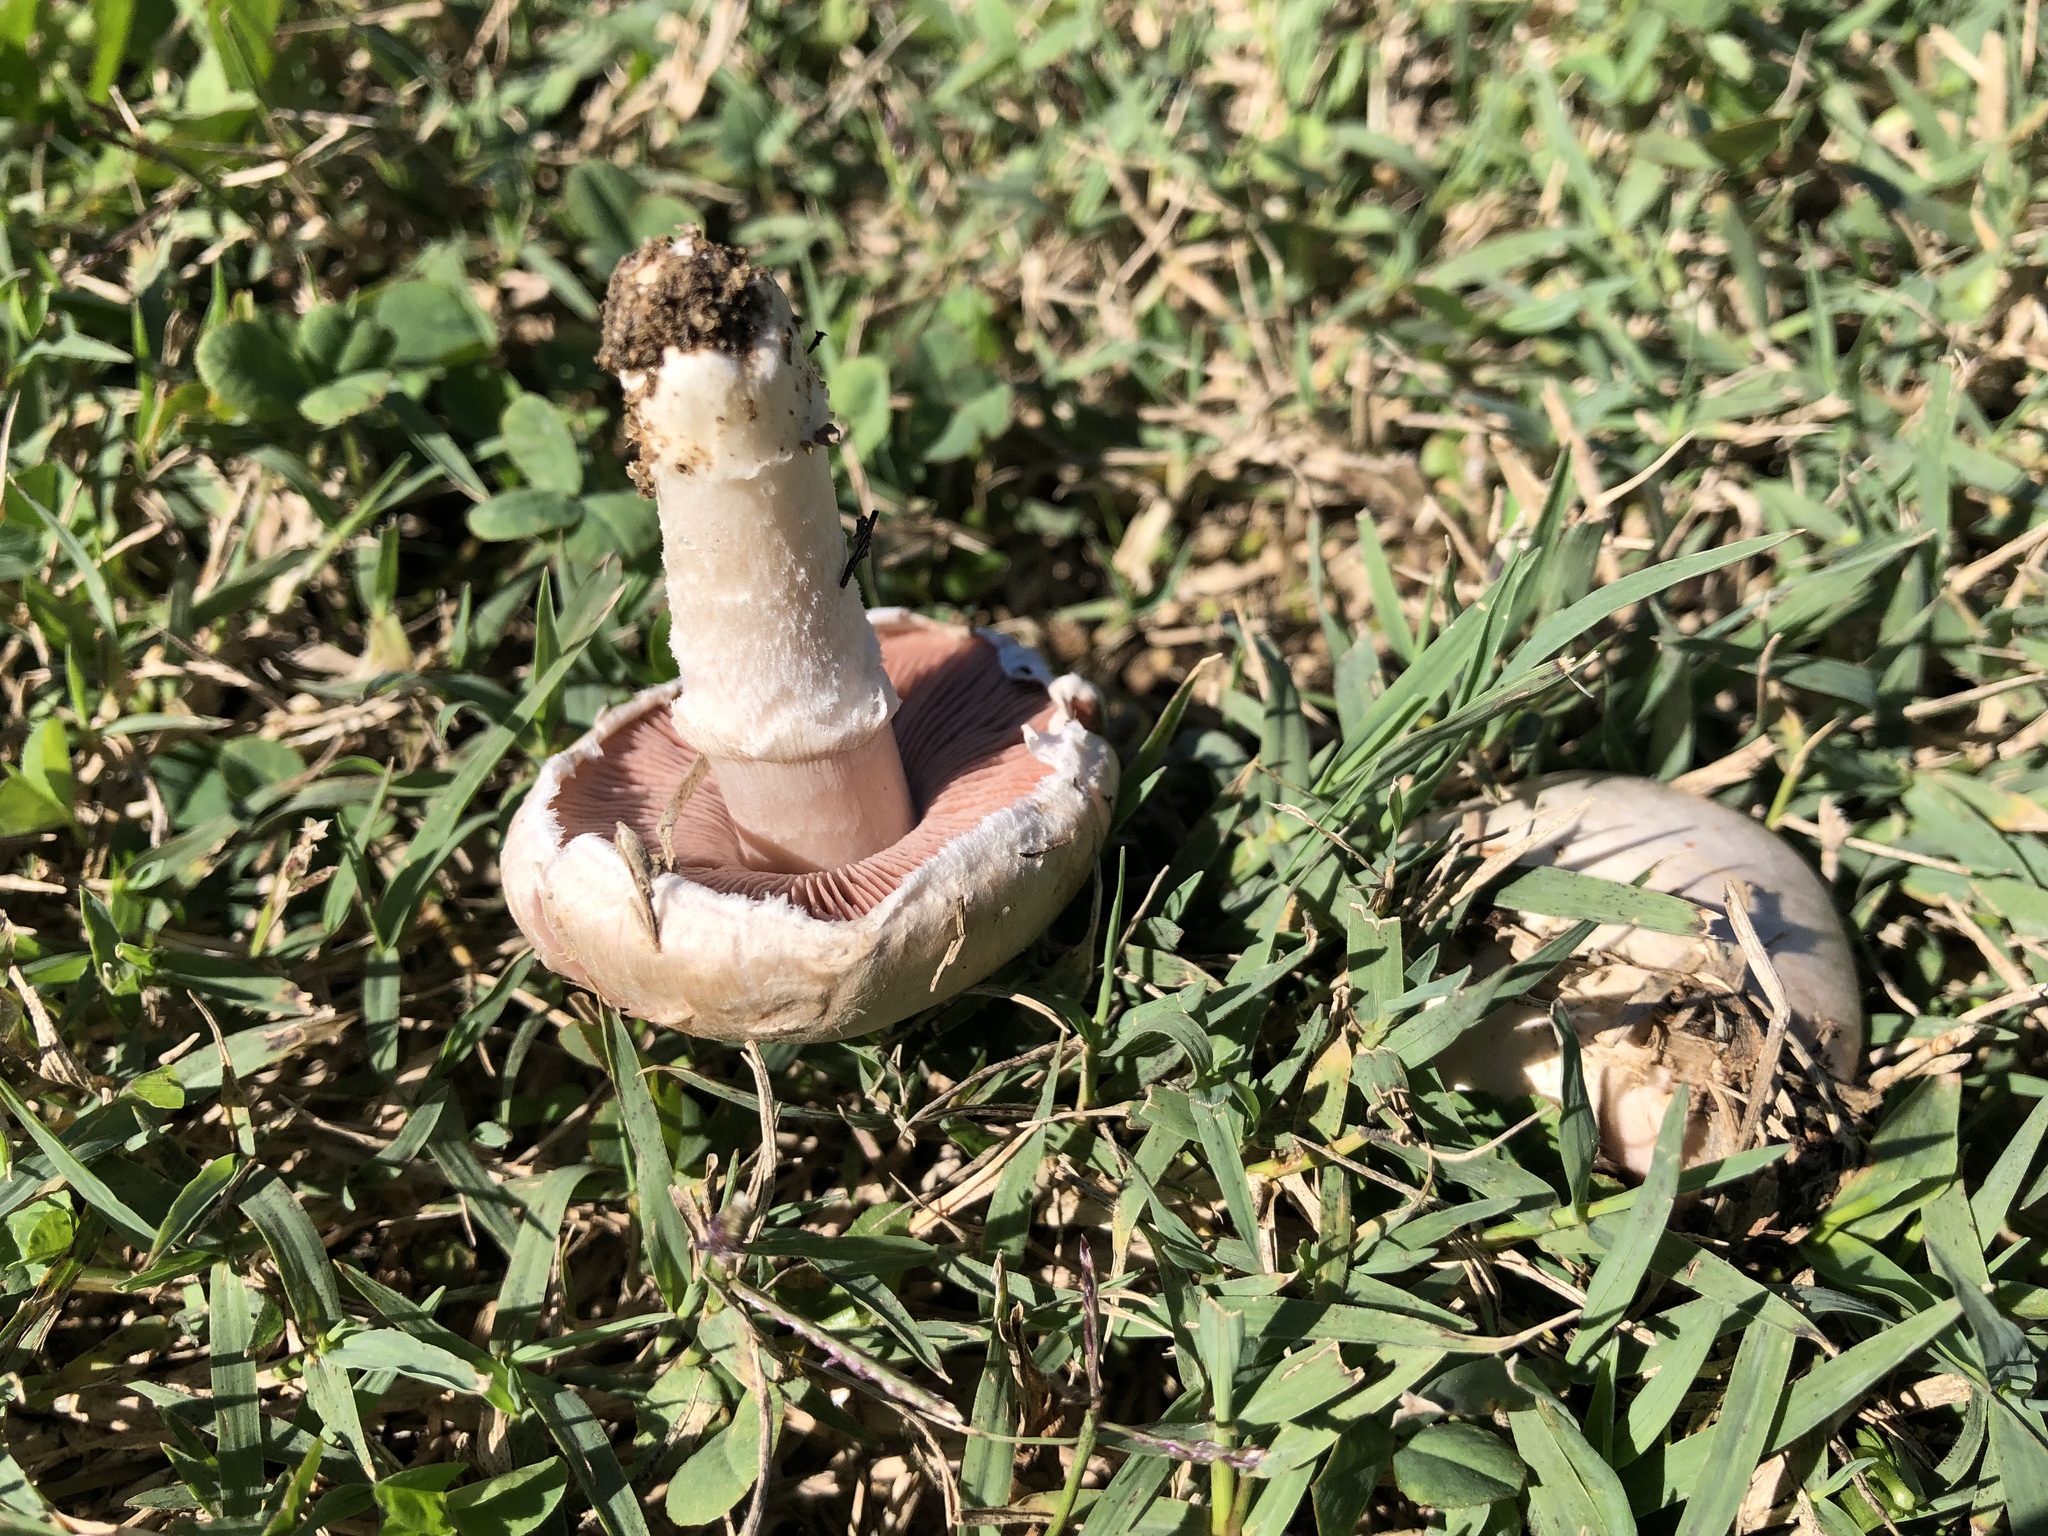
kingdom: Fungi
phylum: Basidiomycota
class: Agaricomycetes
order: Agaricales
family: Agaricaceae
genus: Agaricus
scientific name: Agaricus campestris
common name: Field mushroom
